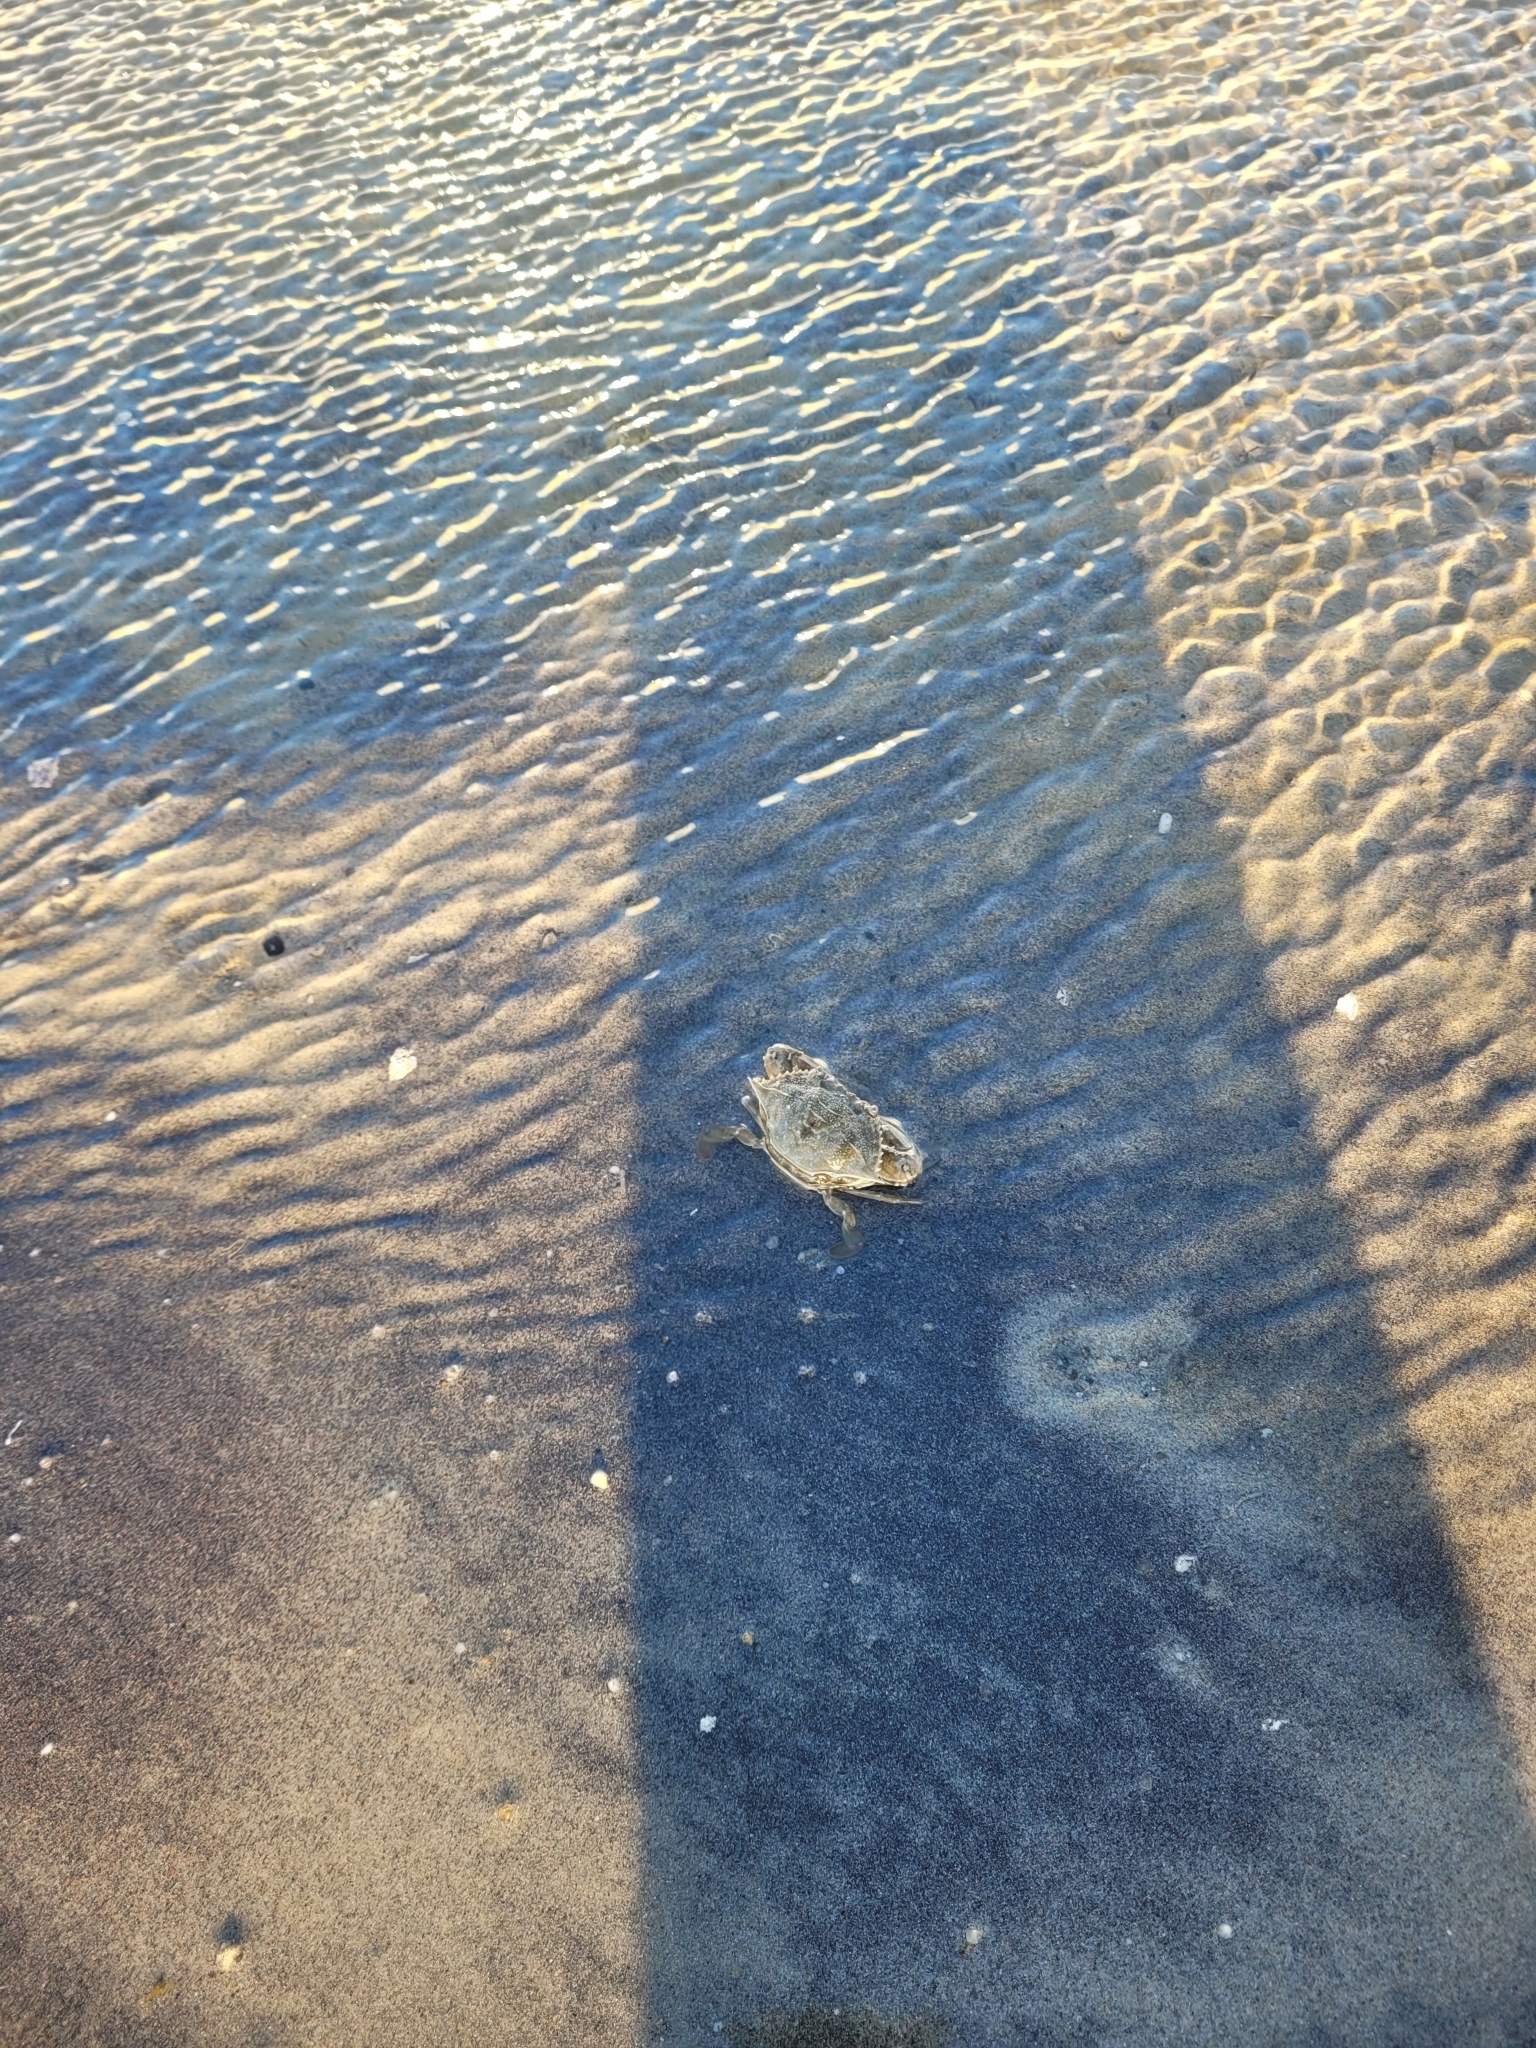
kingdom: Animalia
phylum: Arthropoda
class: Malacostraca
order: Decapoda
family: Portunidae
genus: Callinectes
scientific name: Callinectes sapidus
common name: Blue crab
